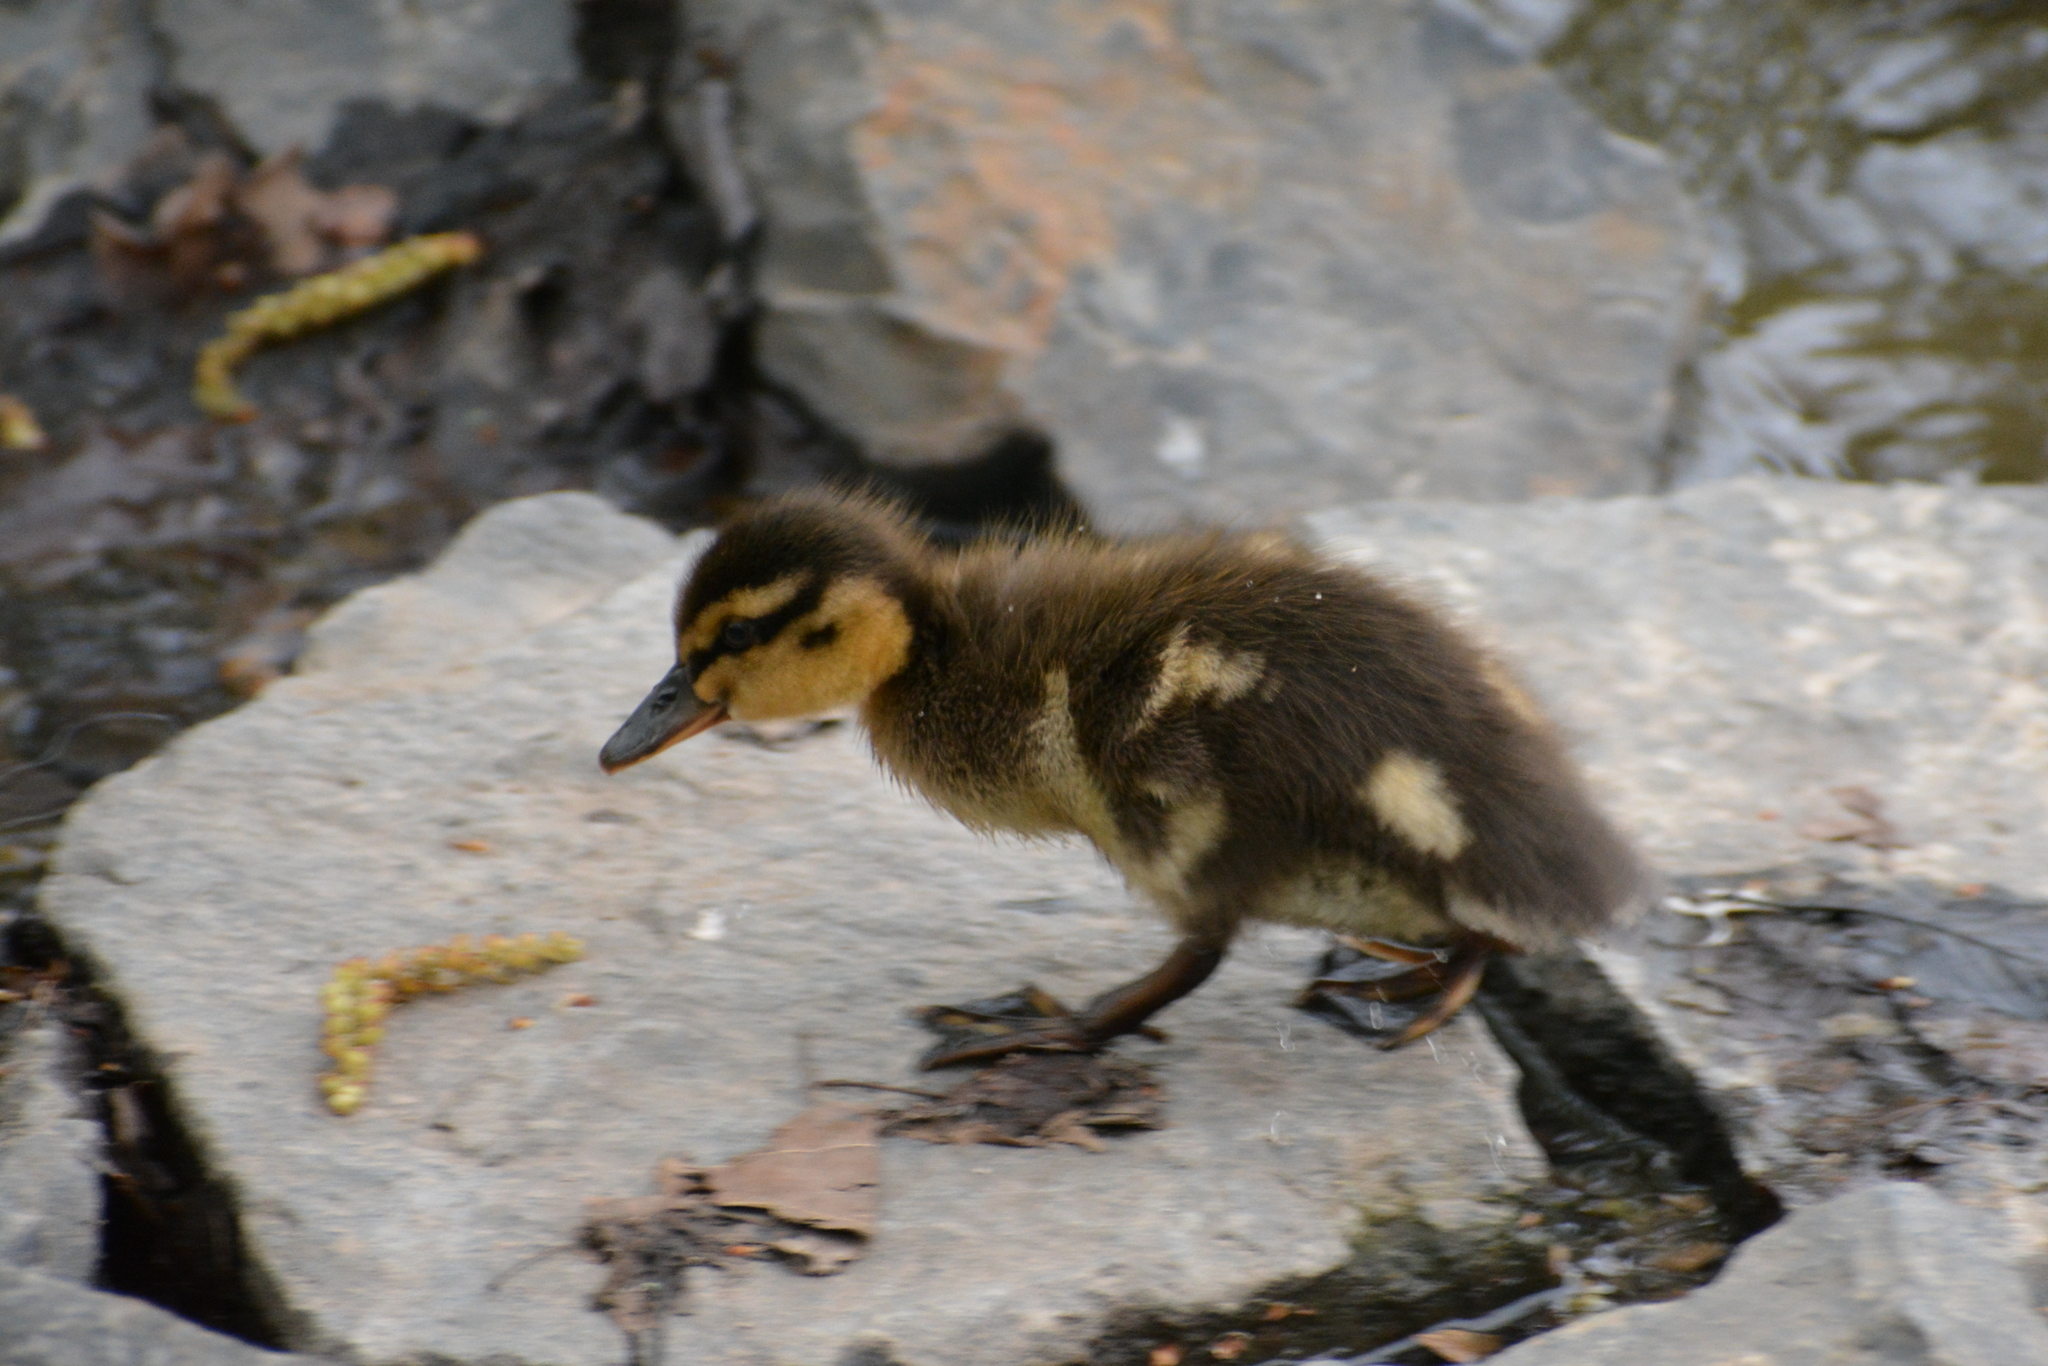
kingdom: Animalia
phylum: Chordata
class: Aves
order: Anseriformes
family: Anatidae
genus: Anas
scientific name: Anas platyrhynchos
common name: Mallard
